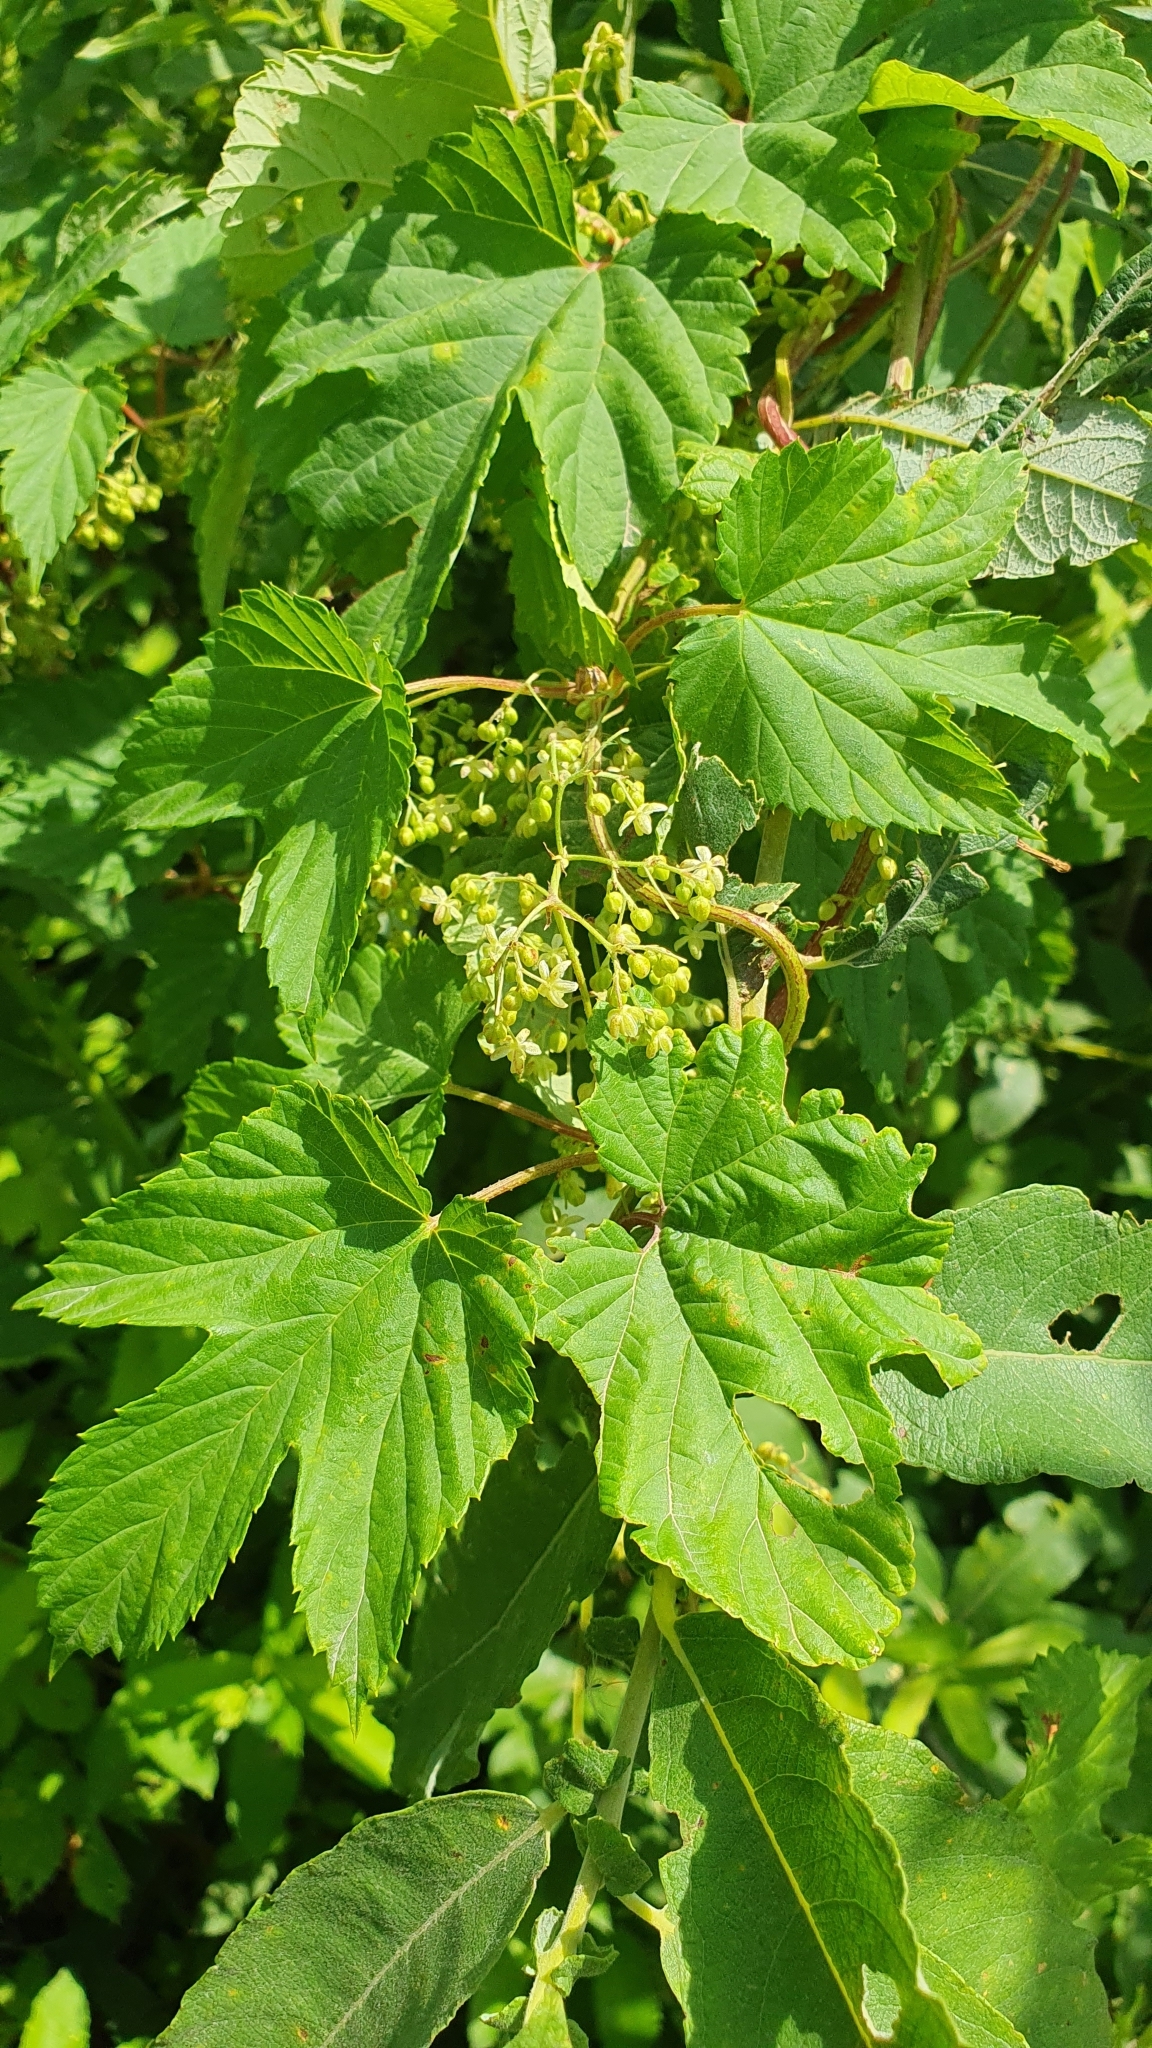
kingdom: Plantae
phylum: Tracheophyta
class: Magnoliopsida
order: Rosales
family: Cannabaceae
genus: Humulus
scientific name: Humulus lupulus
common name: Hop
